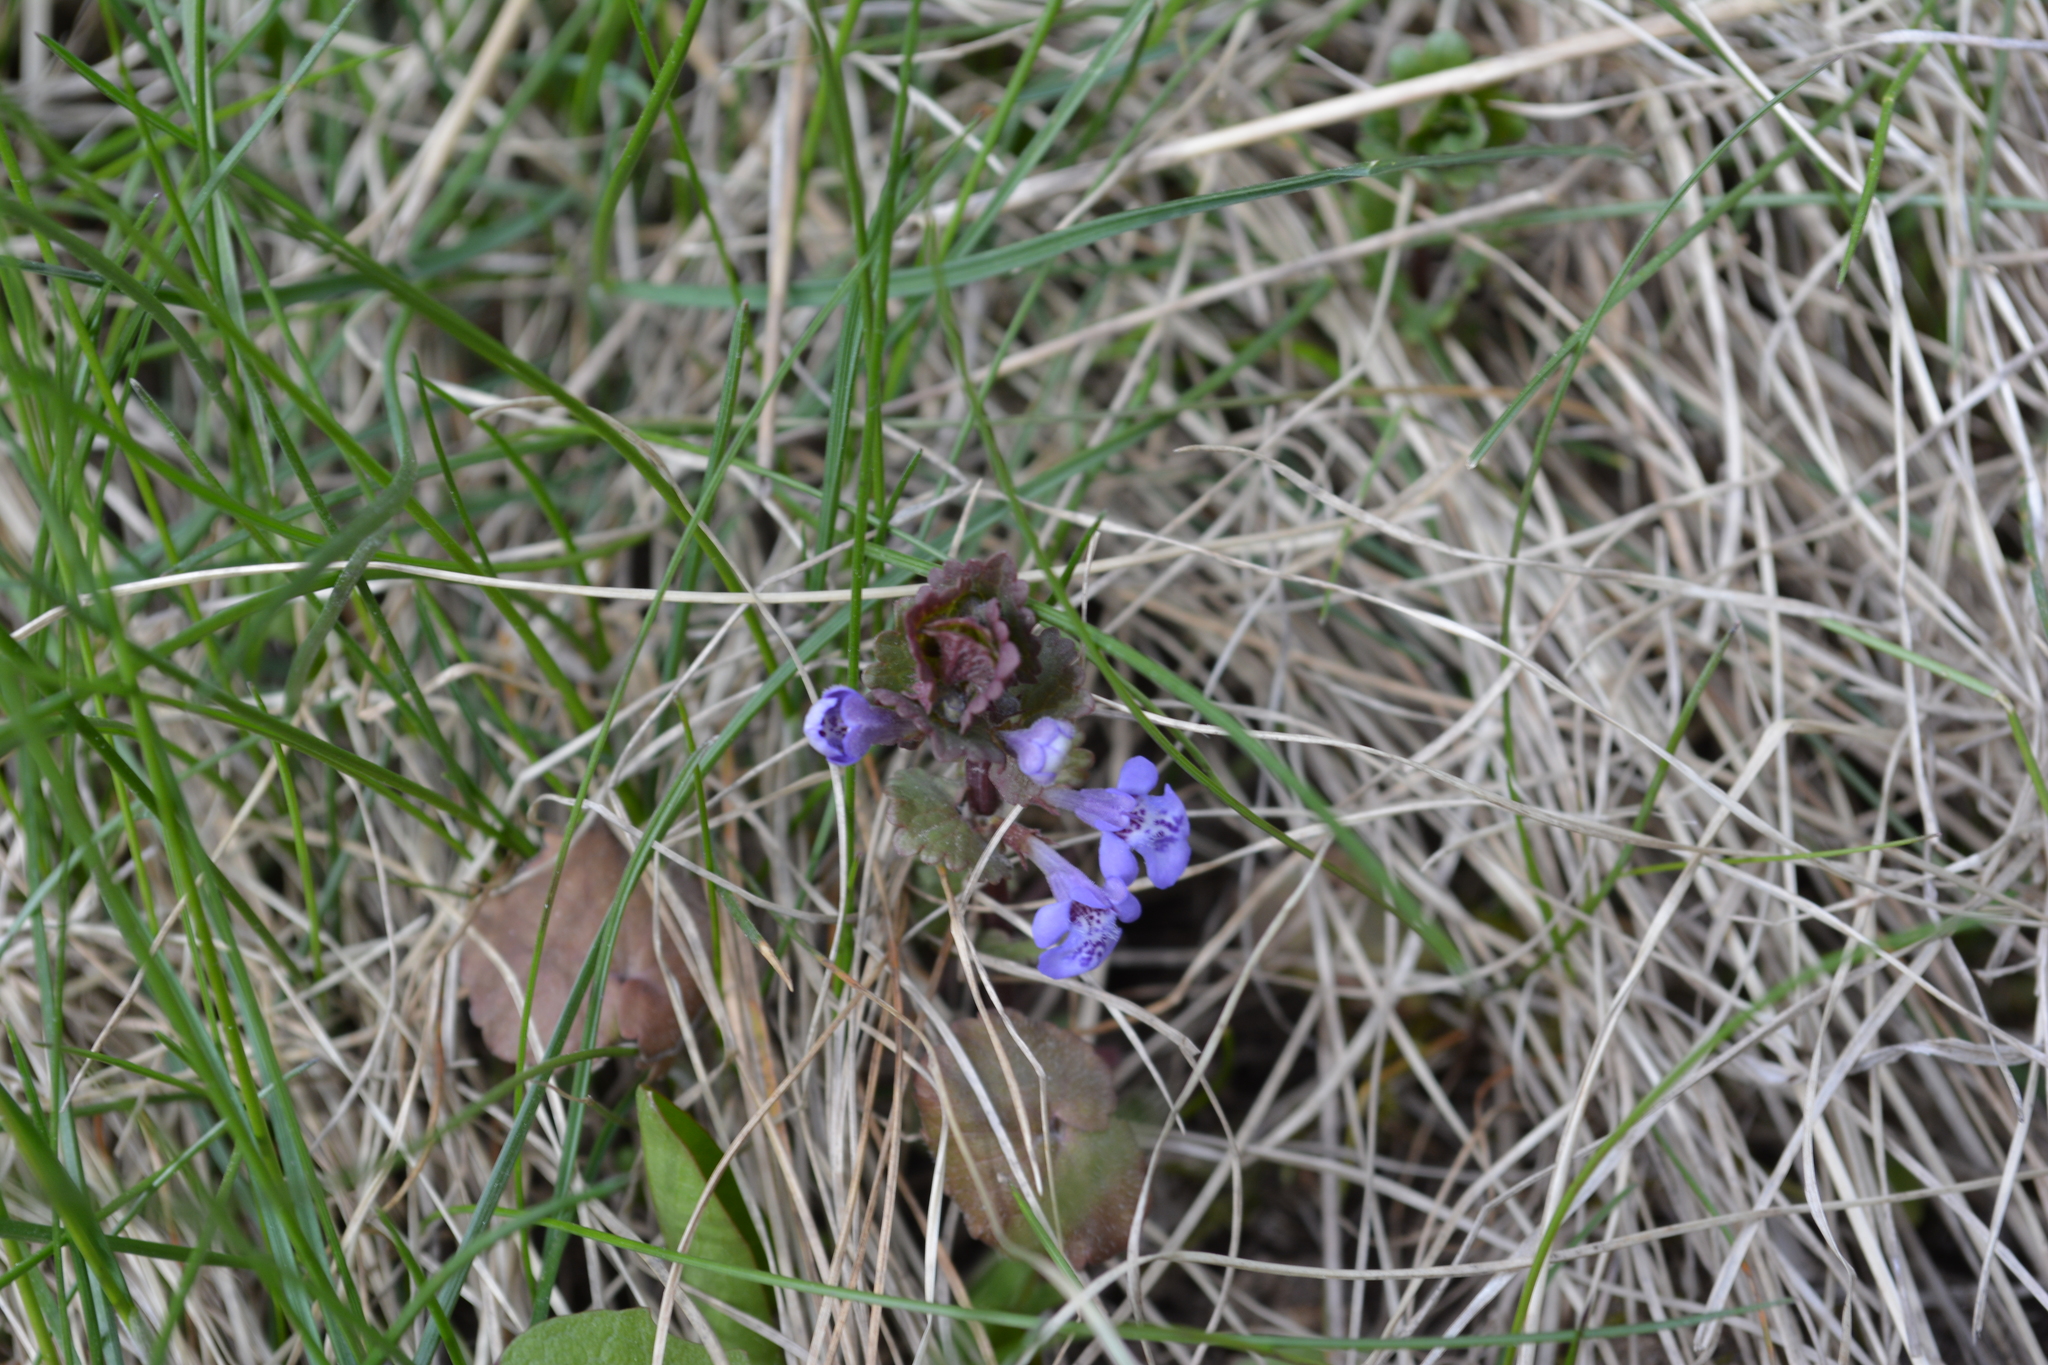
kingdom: Plantae
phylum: Tracheophyta
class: Magnoliopsida
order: Lamiales
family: Lamiaceae
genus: Glechoma
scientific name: Glechoma hederacea
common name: Ground ivy
